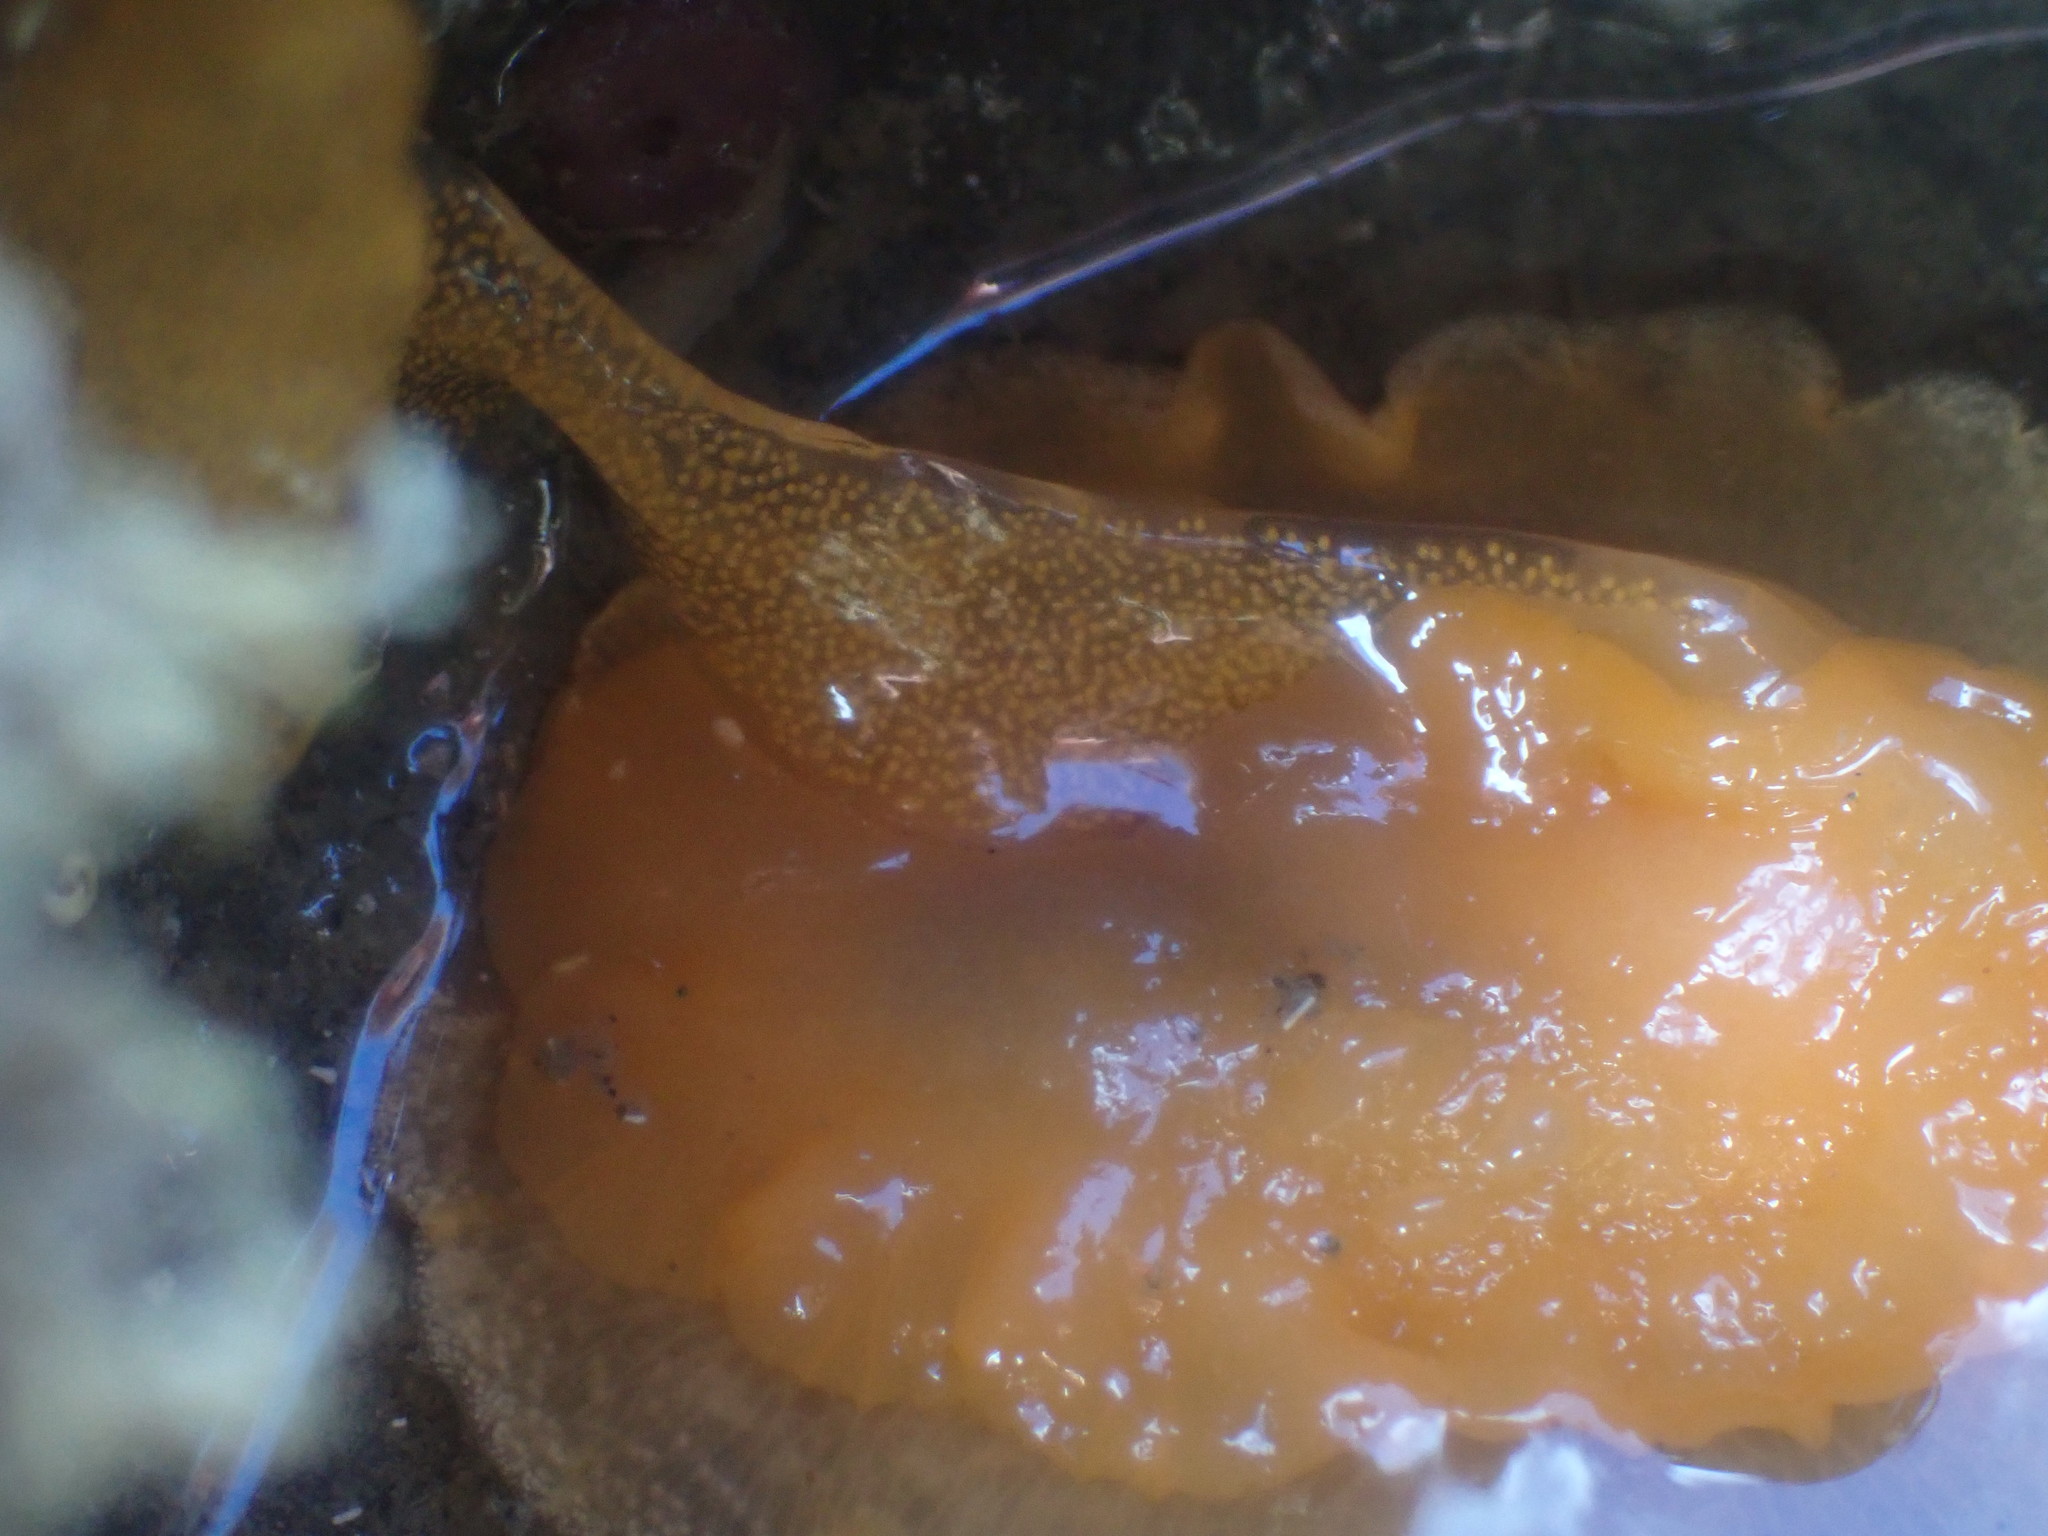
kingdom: Animalia
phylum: Mollusca
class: Gastropoda
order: Nudibranchia
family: Dendrodorididae
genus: Dendrodoris
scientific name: Dendrodoris citrina
